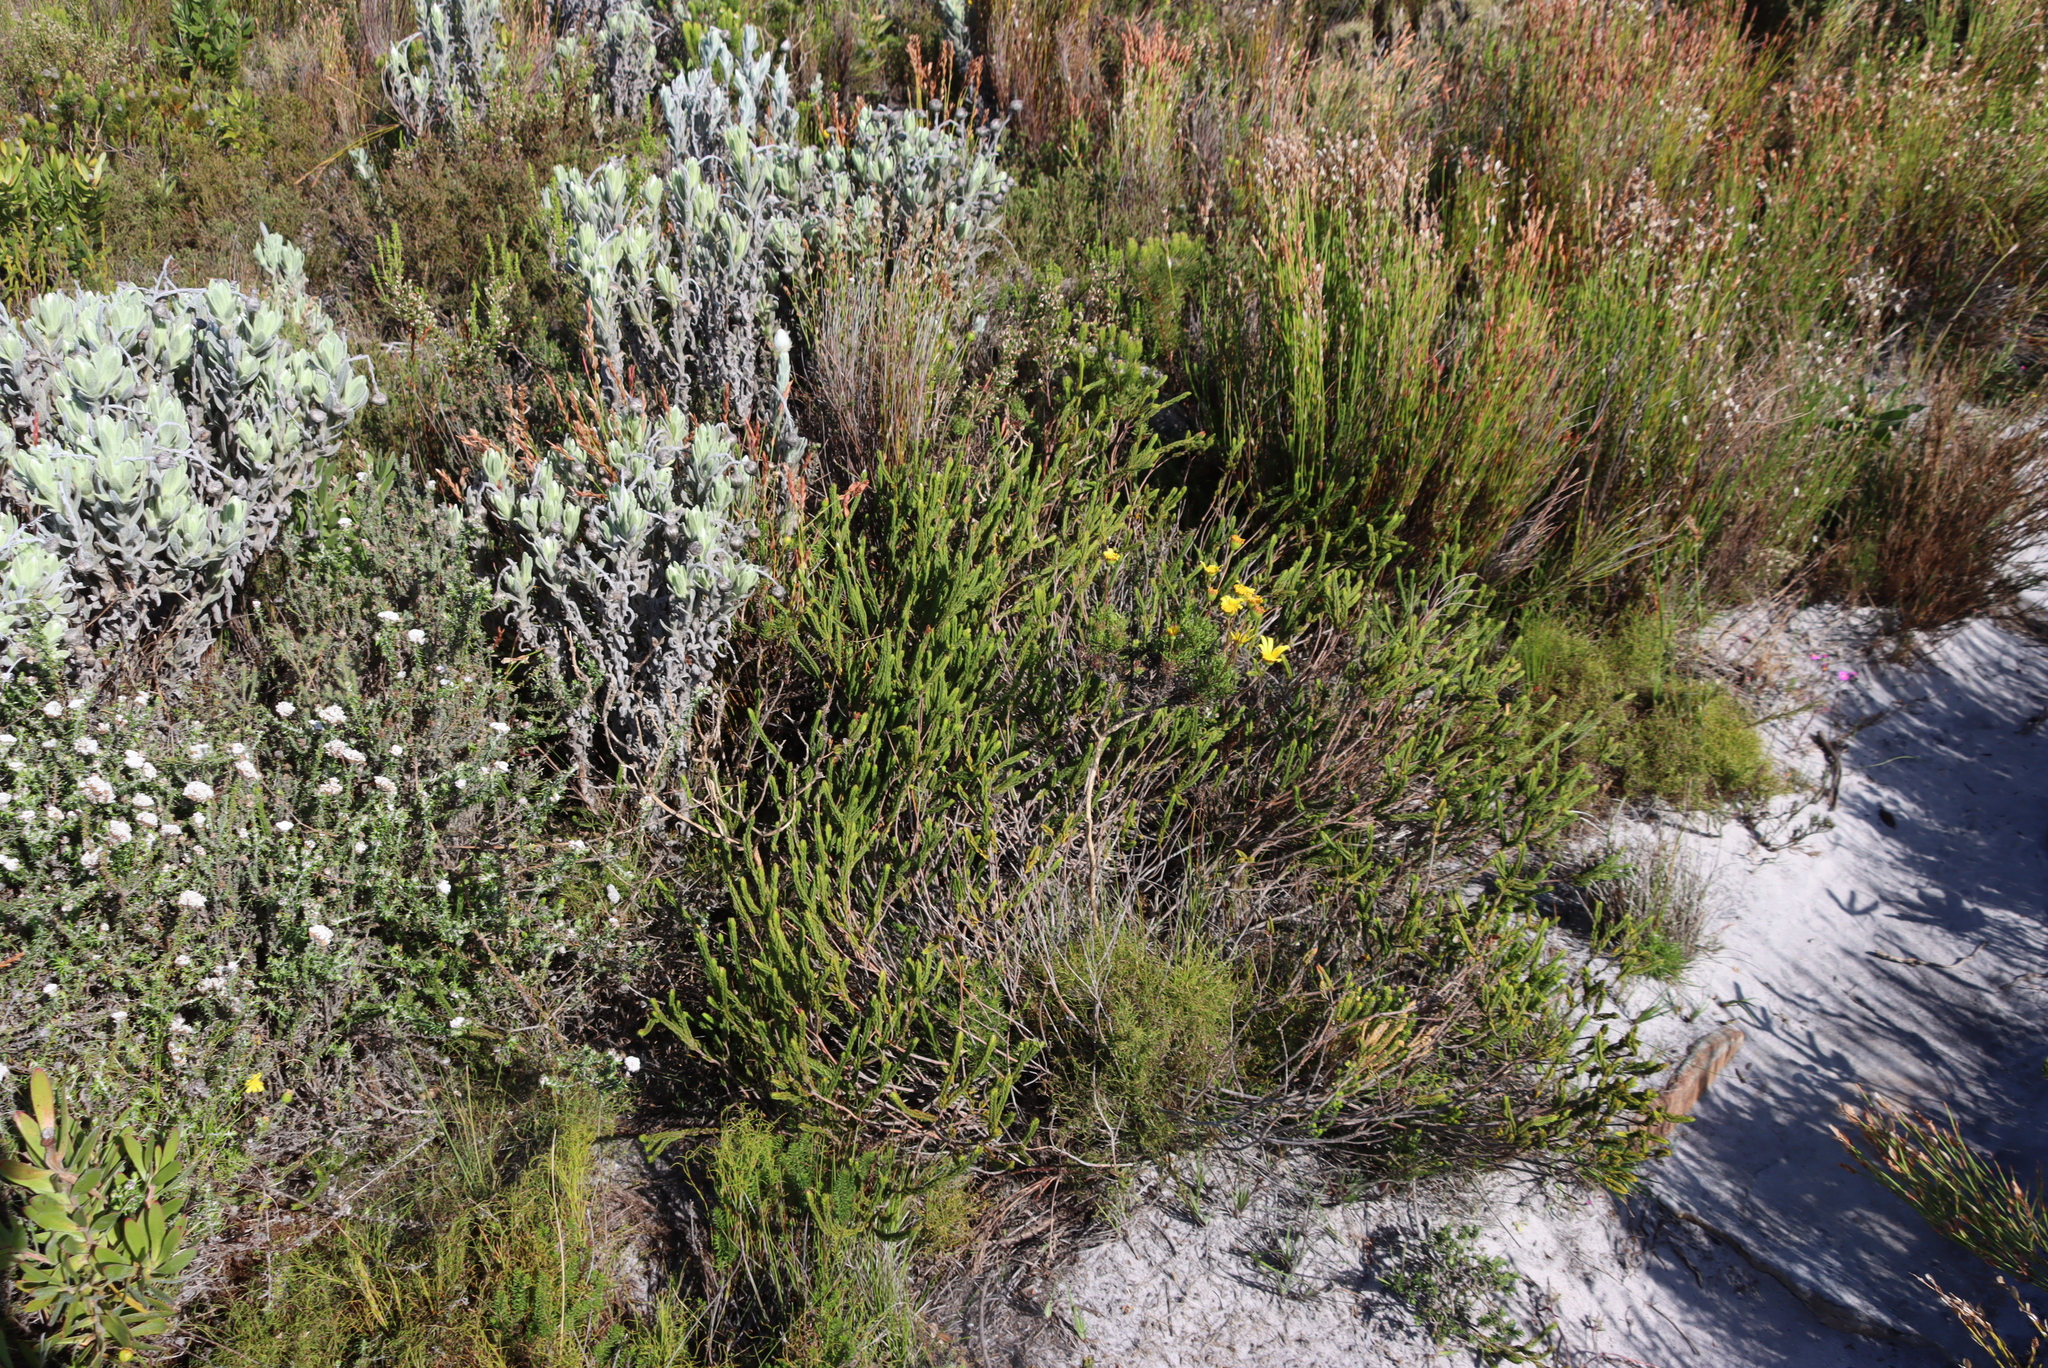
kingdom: Plantae
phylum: Tracheophyta
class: Magnoliopsida
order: Malvales
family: Thymelaeaceae
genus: Lachnaea
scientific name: Lachnaea grandiflora
